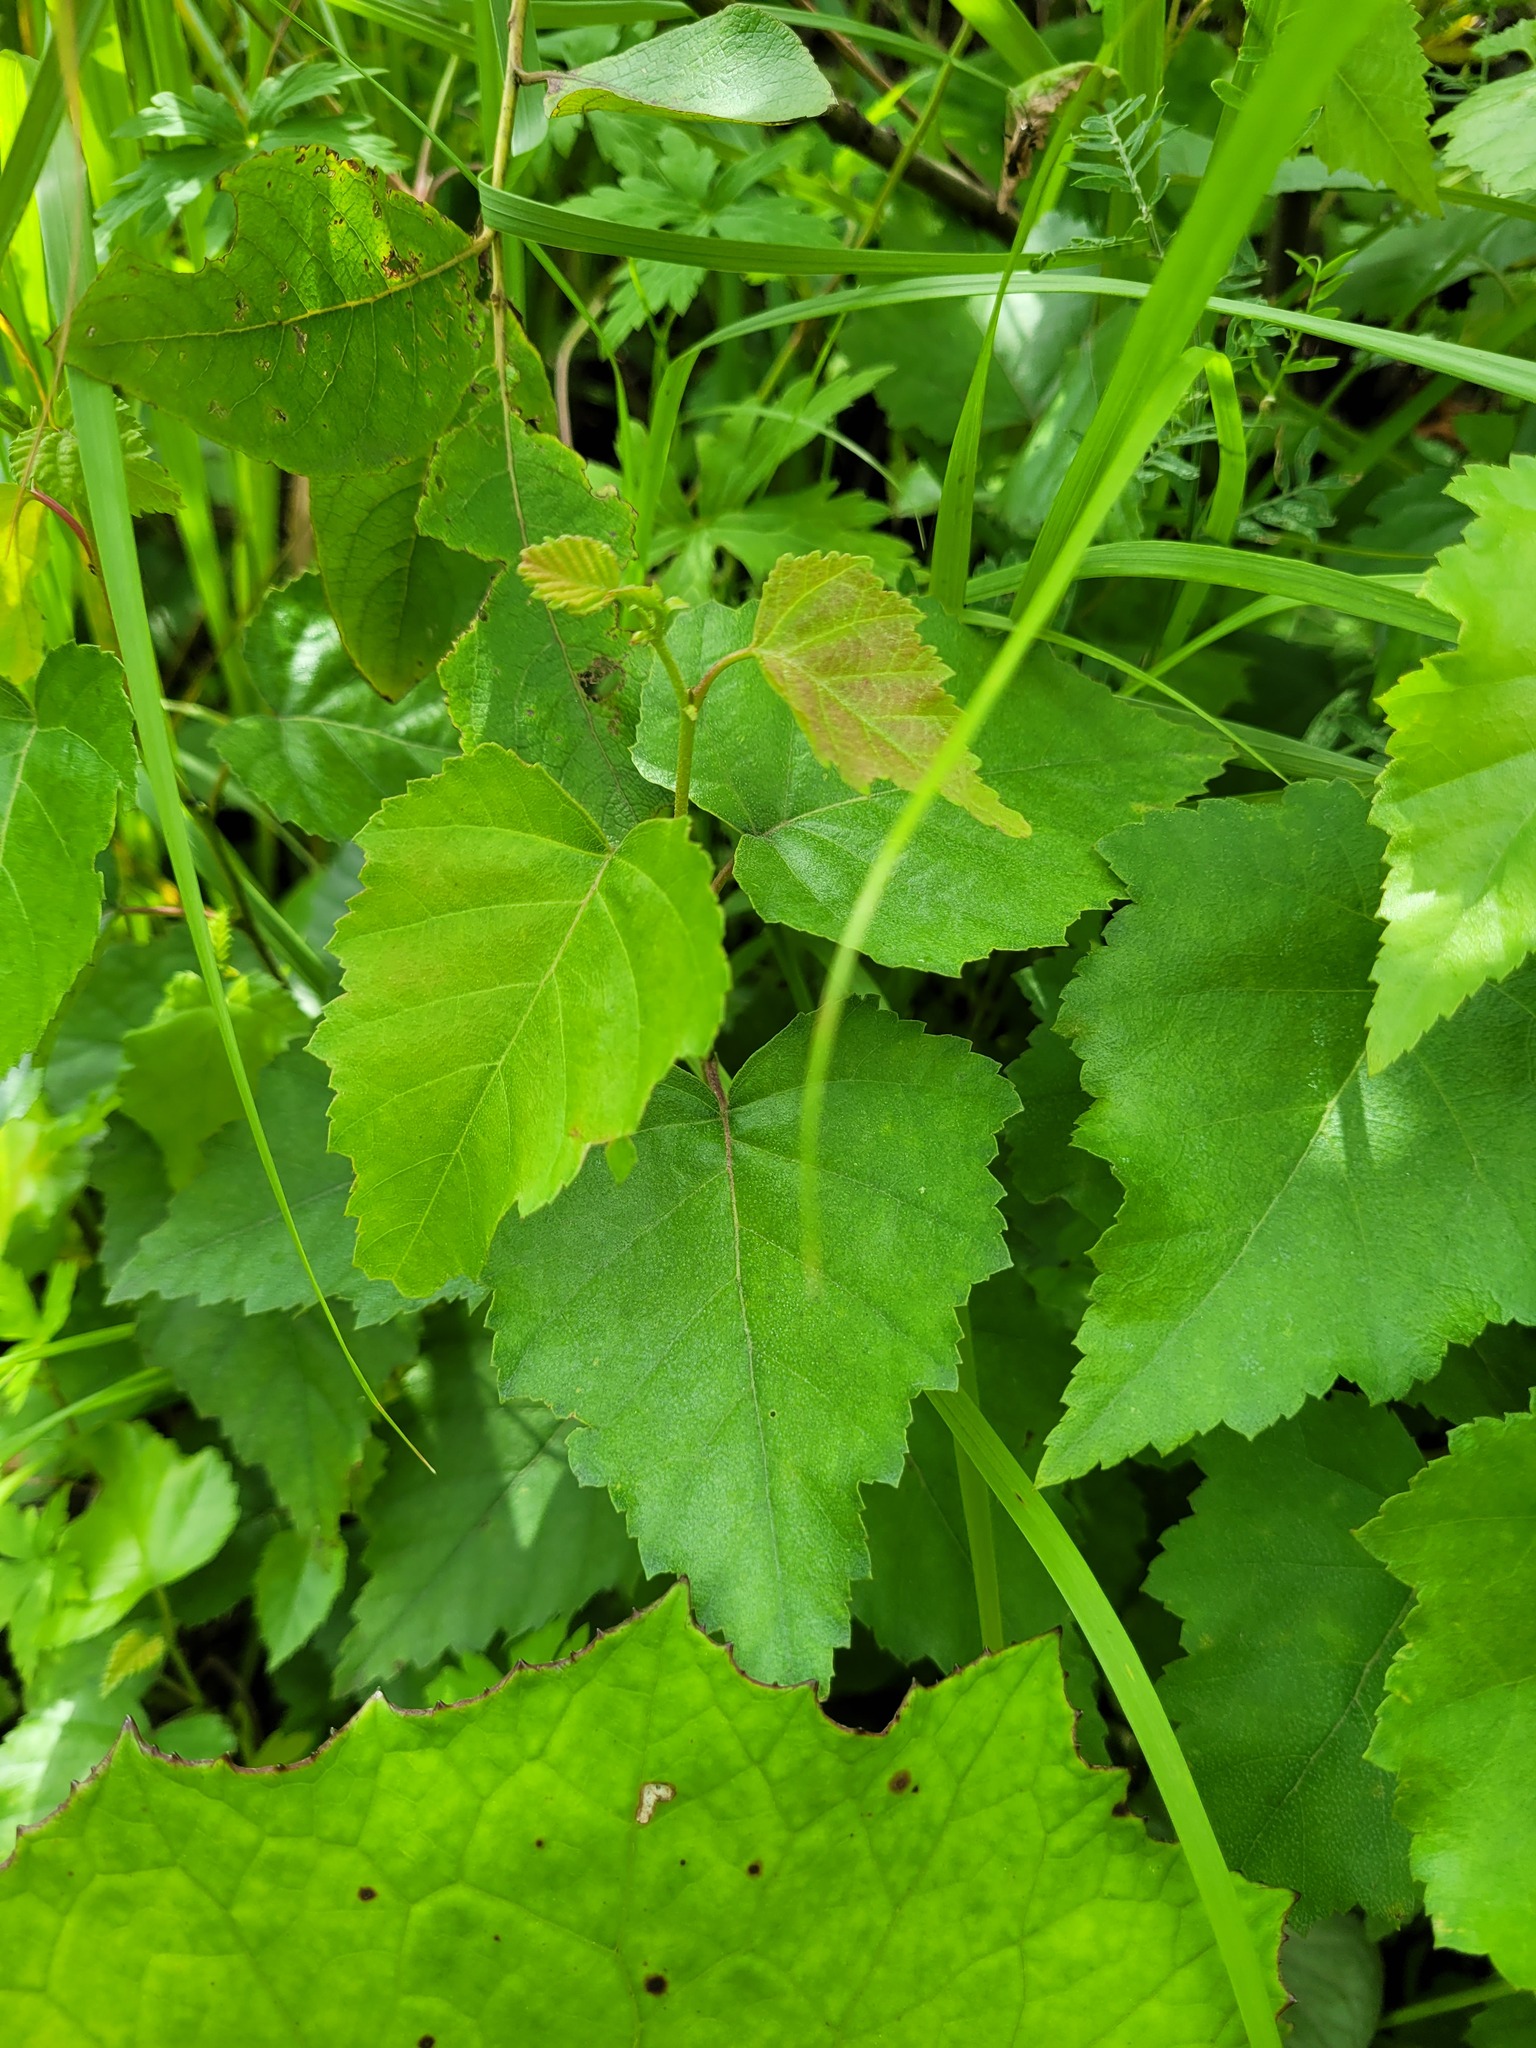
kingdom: Plantae
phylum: Tracheophyta
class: Magnoliopsida
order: Fagales
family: Betulaceae
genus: Betula
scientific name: Betula pendula
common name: Silver birch
